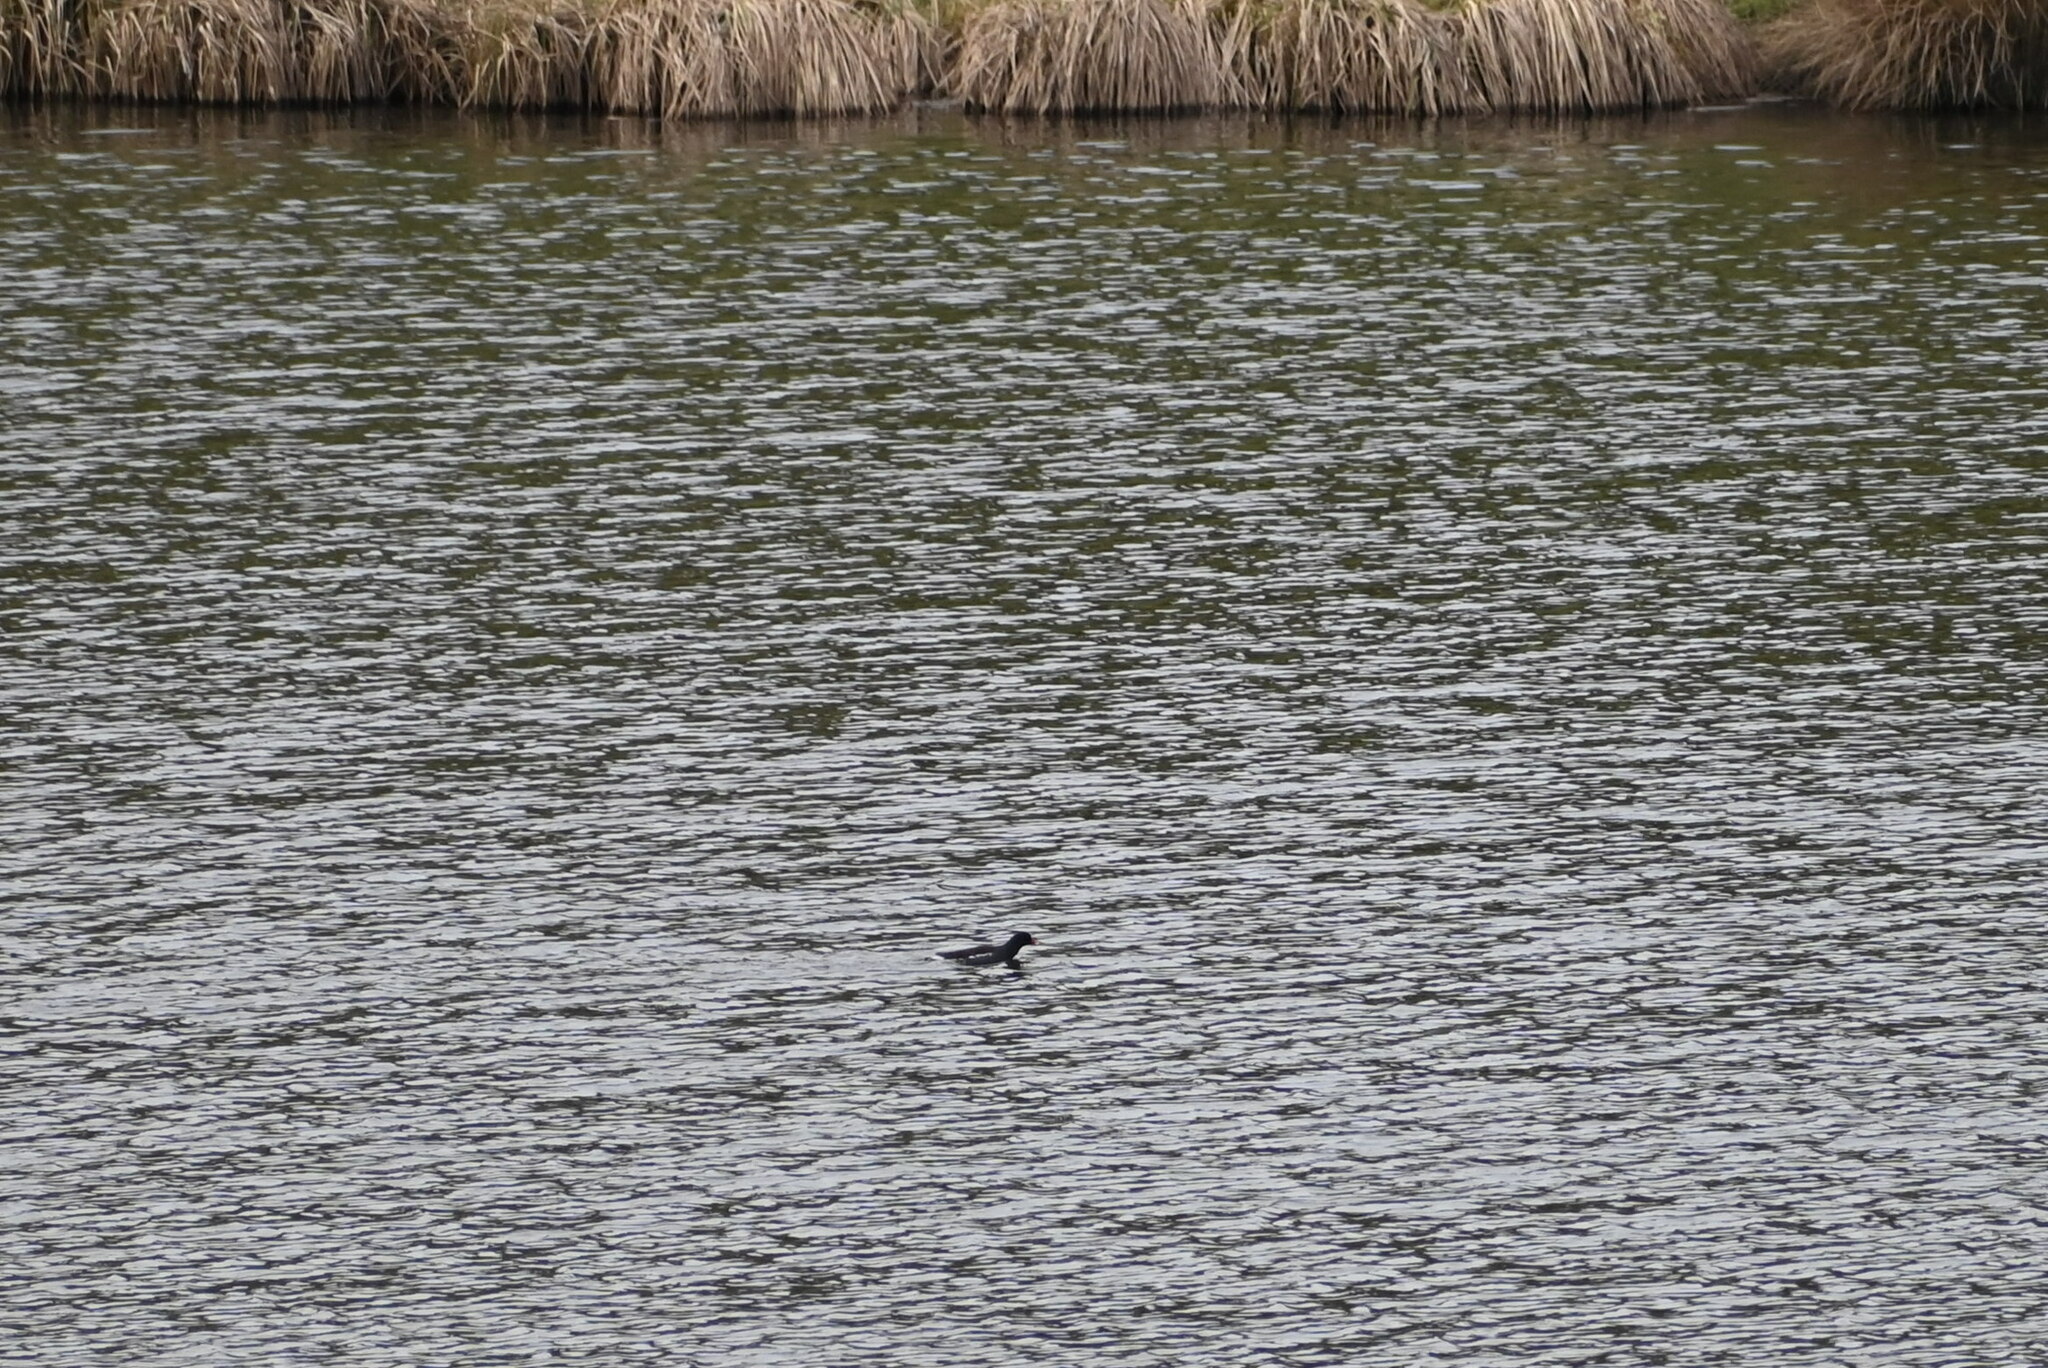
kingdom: Animalia
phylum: Chordata
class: Aves
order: Gruiformes
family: Rallidae
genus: Gallinula
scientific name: Gallinula chloropus
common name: Common moorhen
